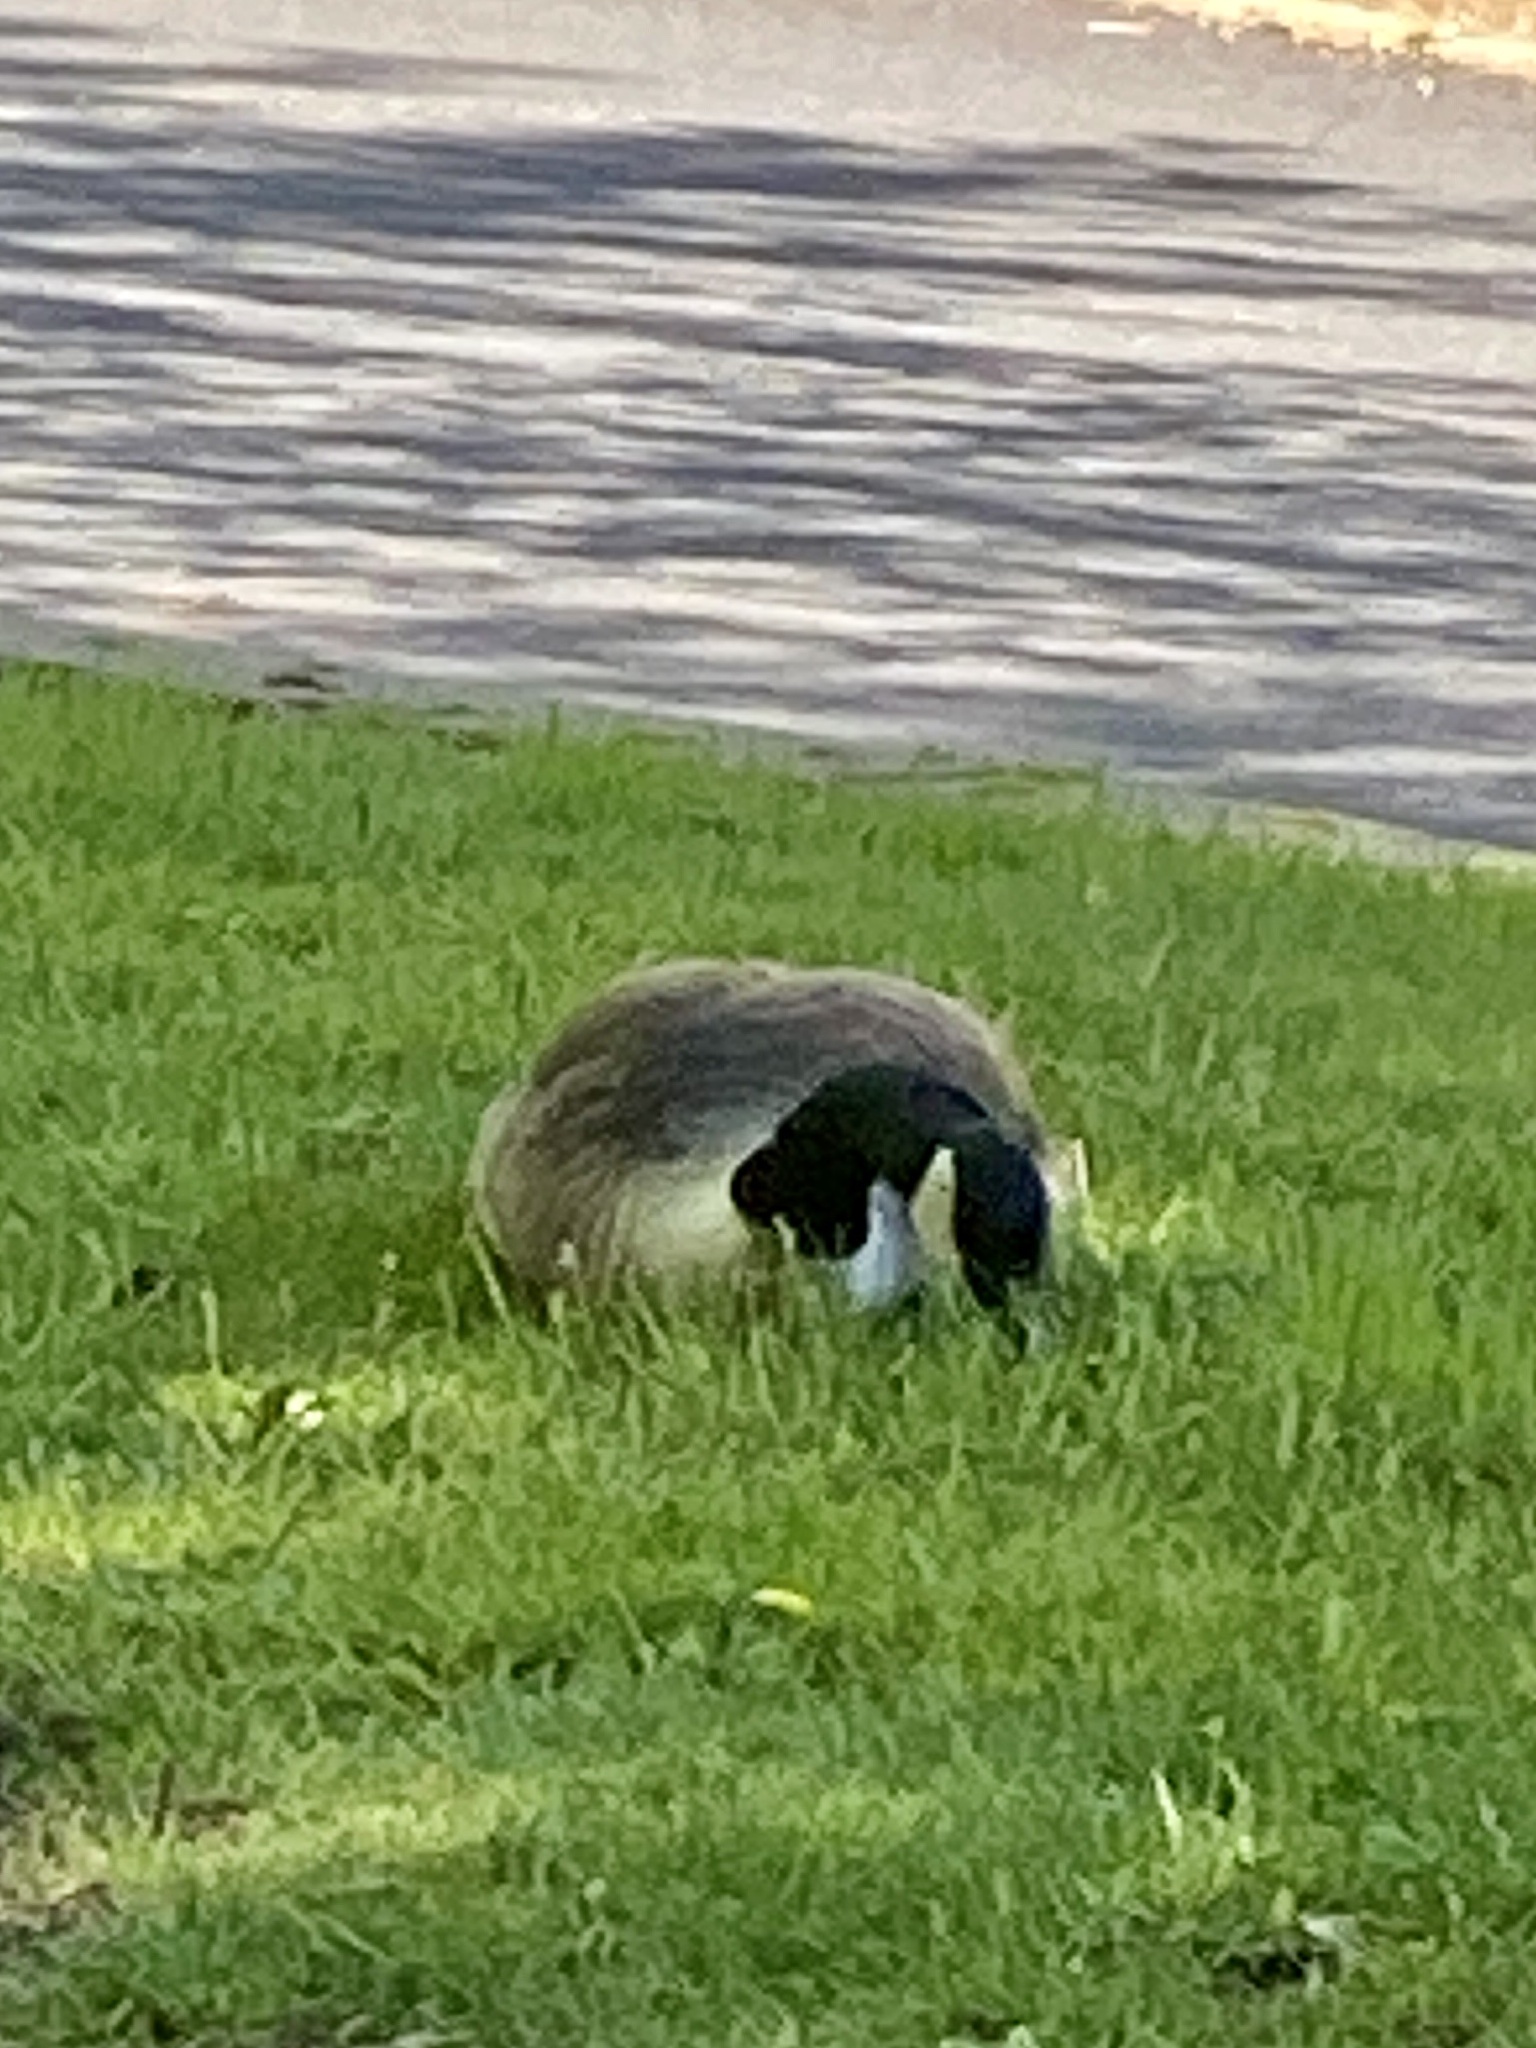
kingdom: Animalia
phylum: Chordata
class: Aves
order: Anseriformes
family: Anatidae
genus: Branta
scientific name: Branta canadensis
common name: Canada goose
